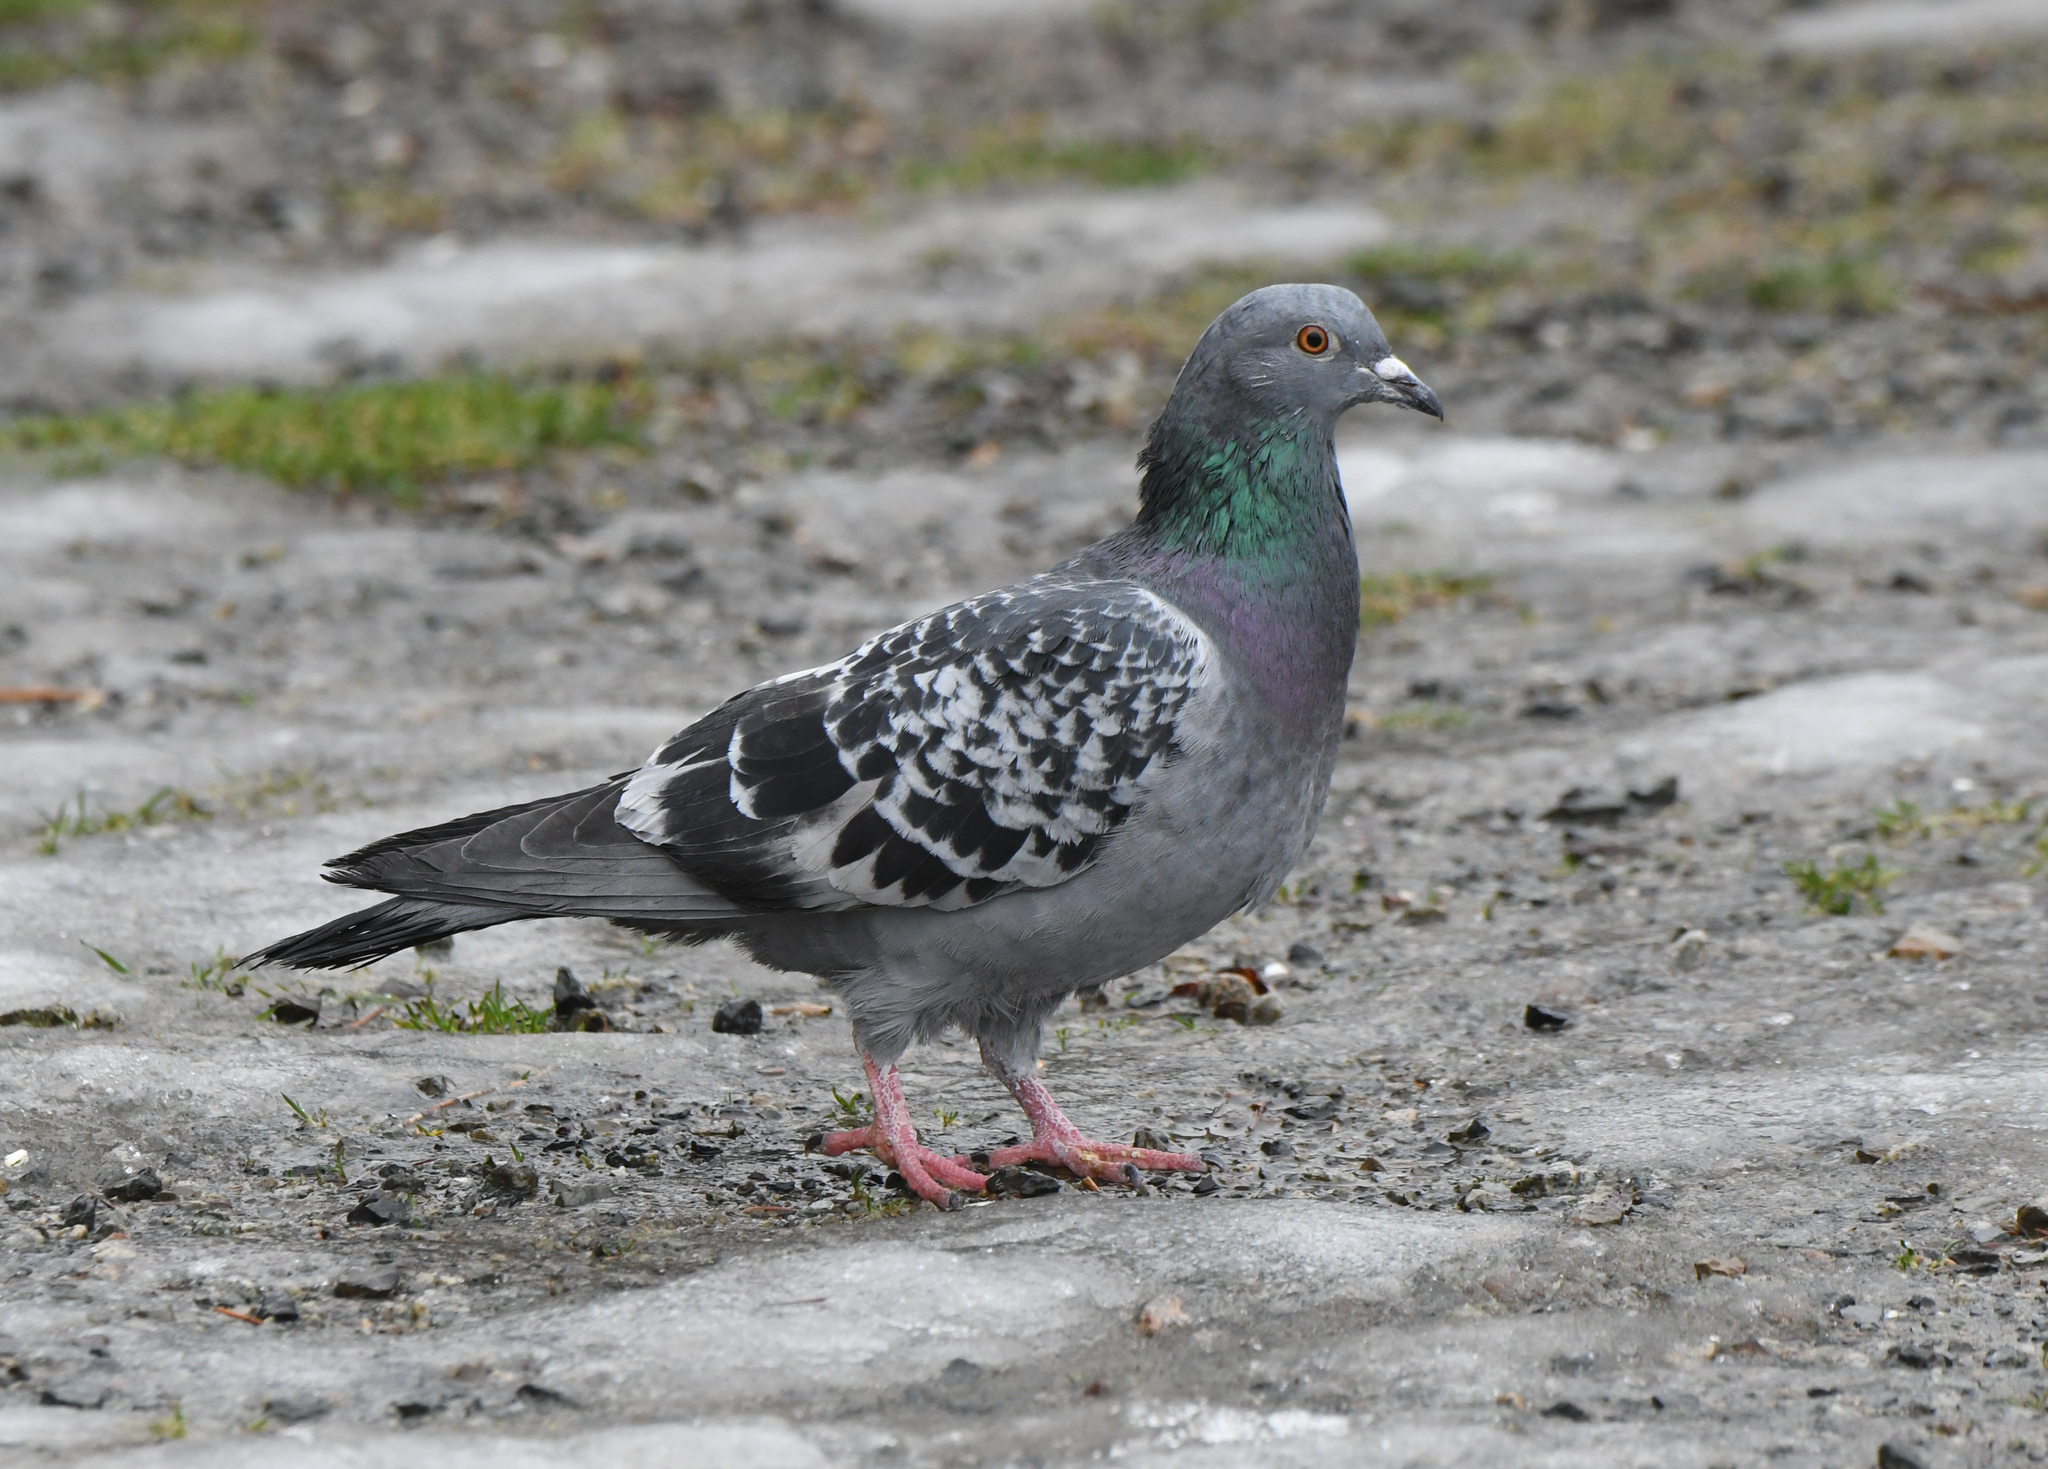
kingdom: Animalia
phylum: Chordata
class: Aves
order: Columbiformes
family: Columbidae
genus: Columba
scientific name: Columba livia
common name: Rock pigeon
